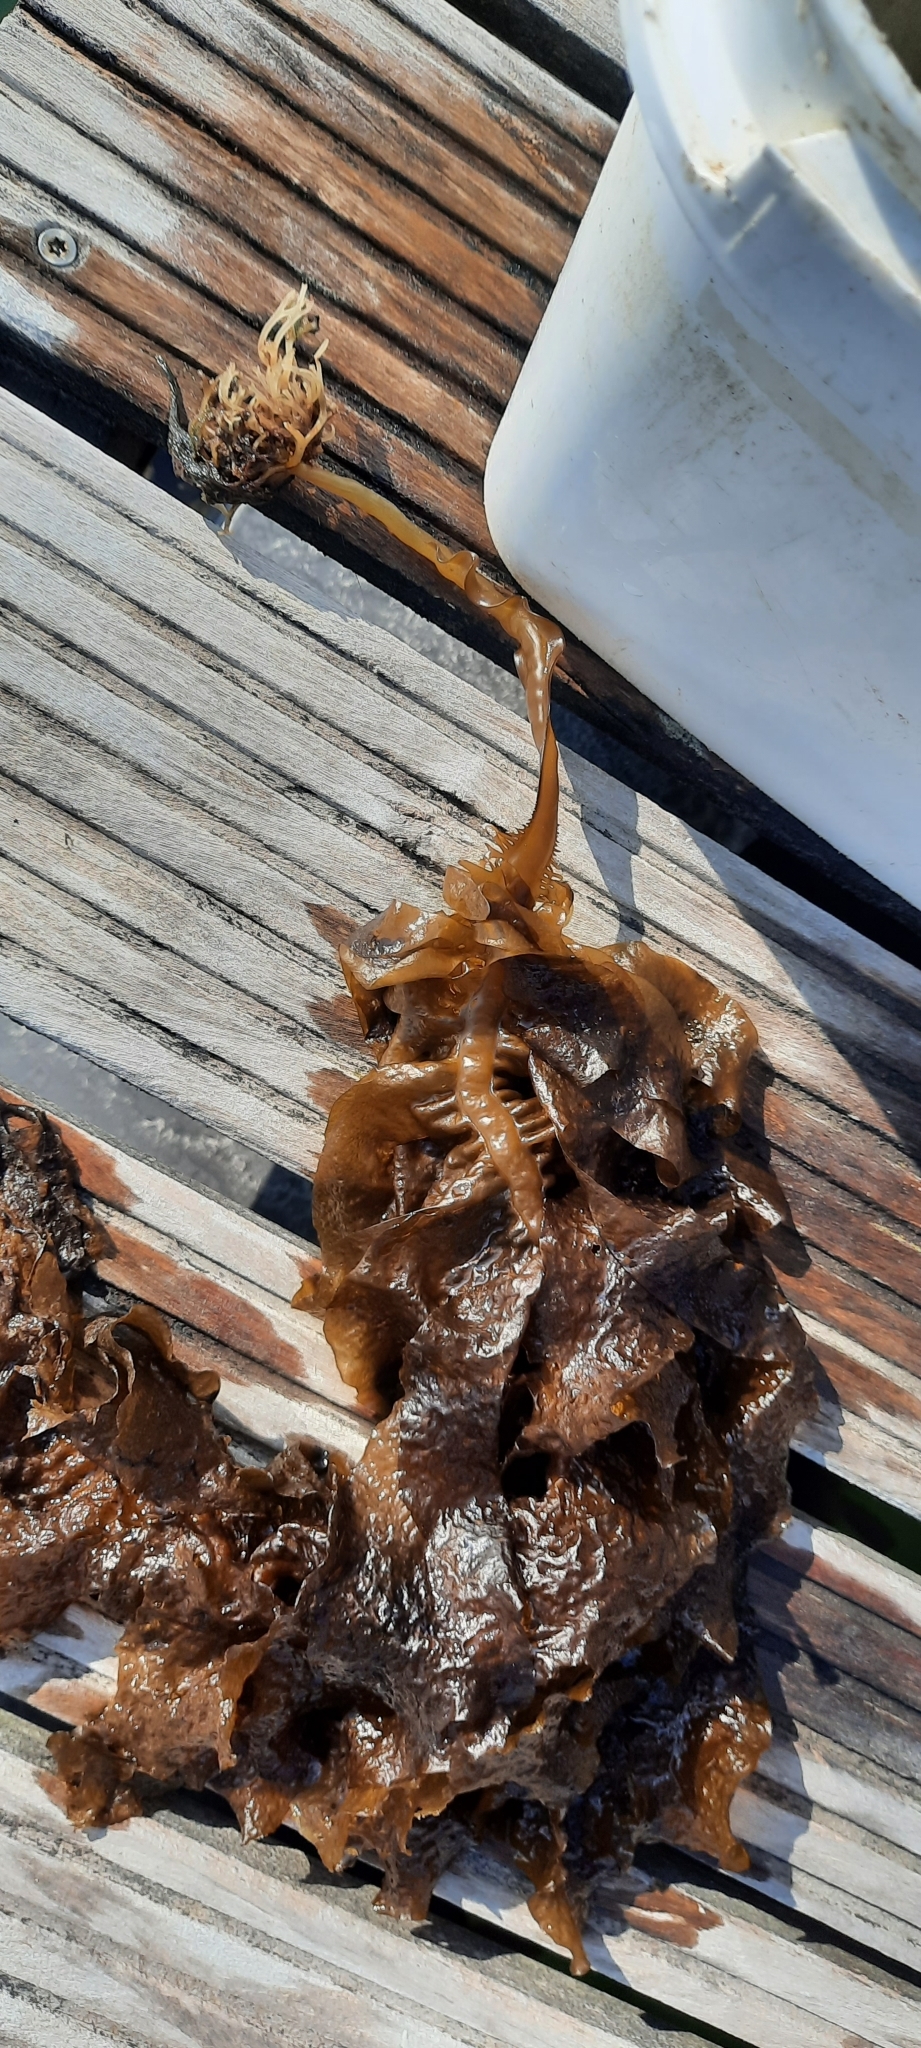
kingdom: Chromista
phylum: Ochrophyta
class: Phaeophyceae
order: Laminariales
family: Alariaceae
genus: Undaria
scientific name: Undaria pinnatifida
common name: Asian kelp
